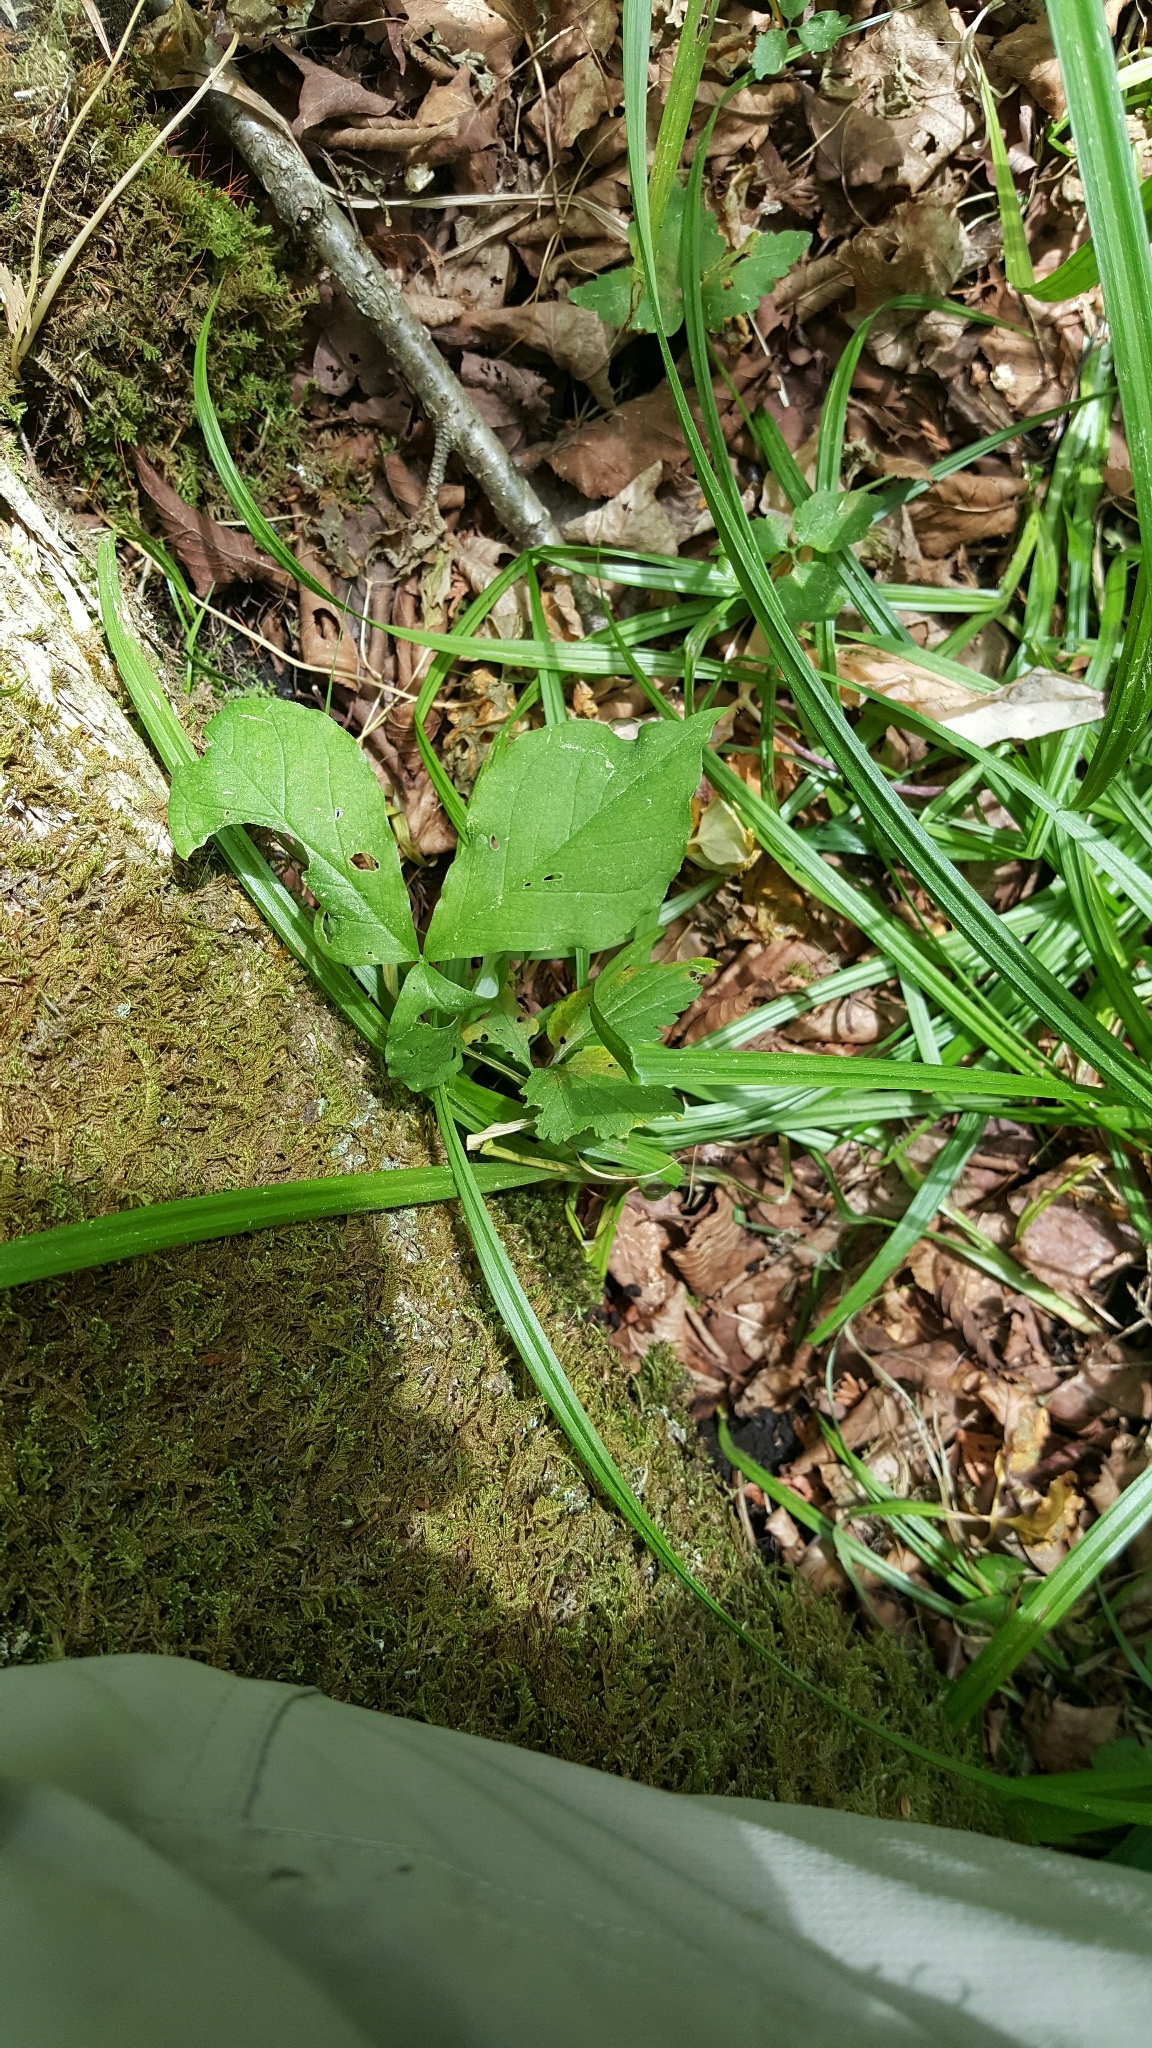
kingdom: Plantae
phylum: Tracheophyta
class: Liliopsida
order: Alismatales
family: Araceae
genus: Arisaema
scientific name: Arisaema triphyllum
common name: Jack-in-the-pulpit
